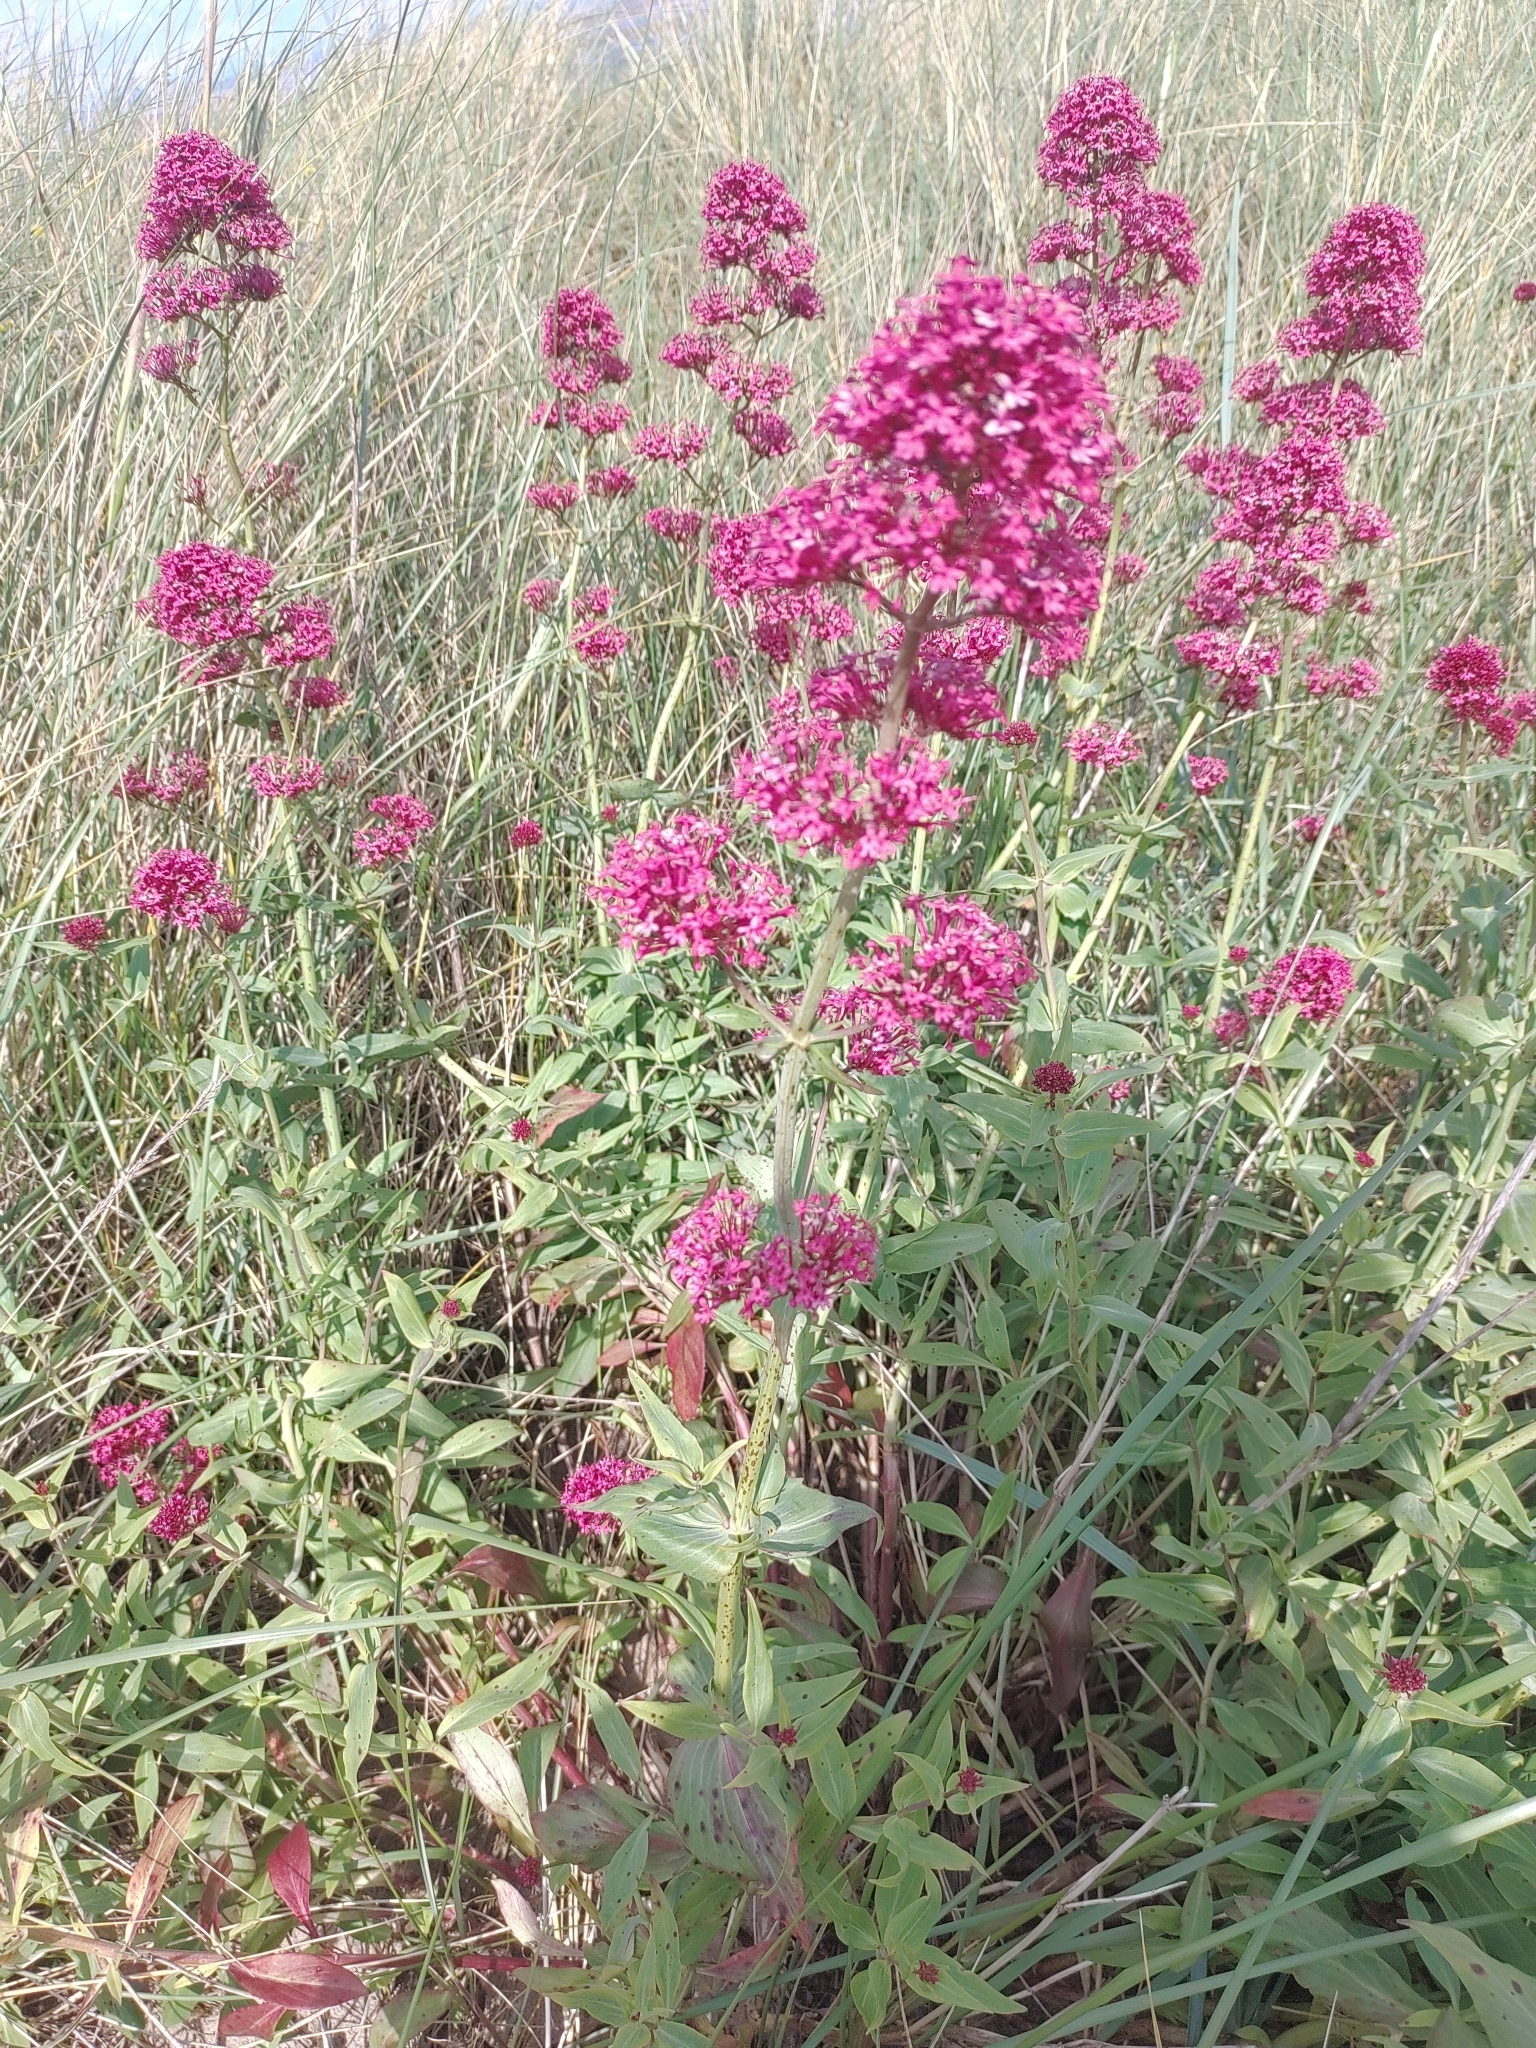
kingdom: Plantae
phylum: Tracheophyta
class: Magnoliopsida
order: Dipsacales
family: Caprifoliaceae
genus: Centranthus
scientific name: Centranthus ruber
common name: Red valerian
